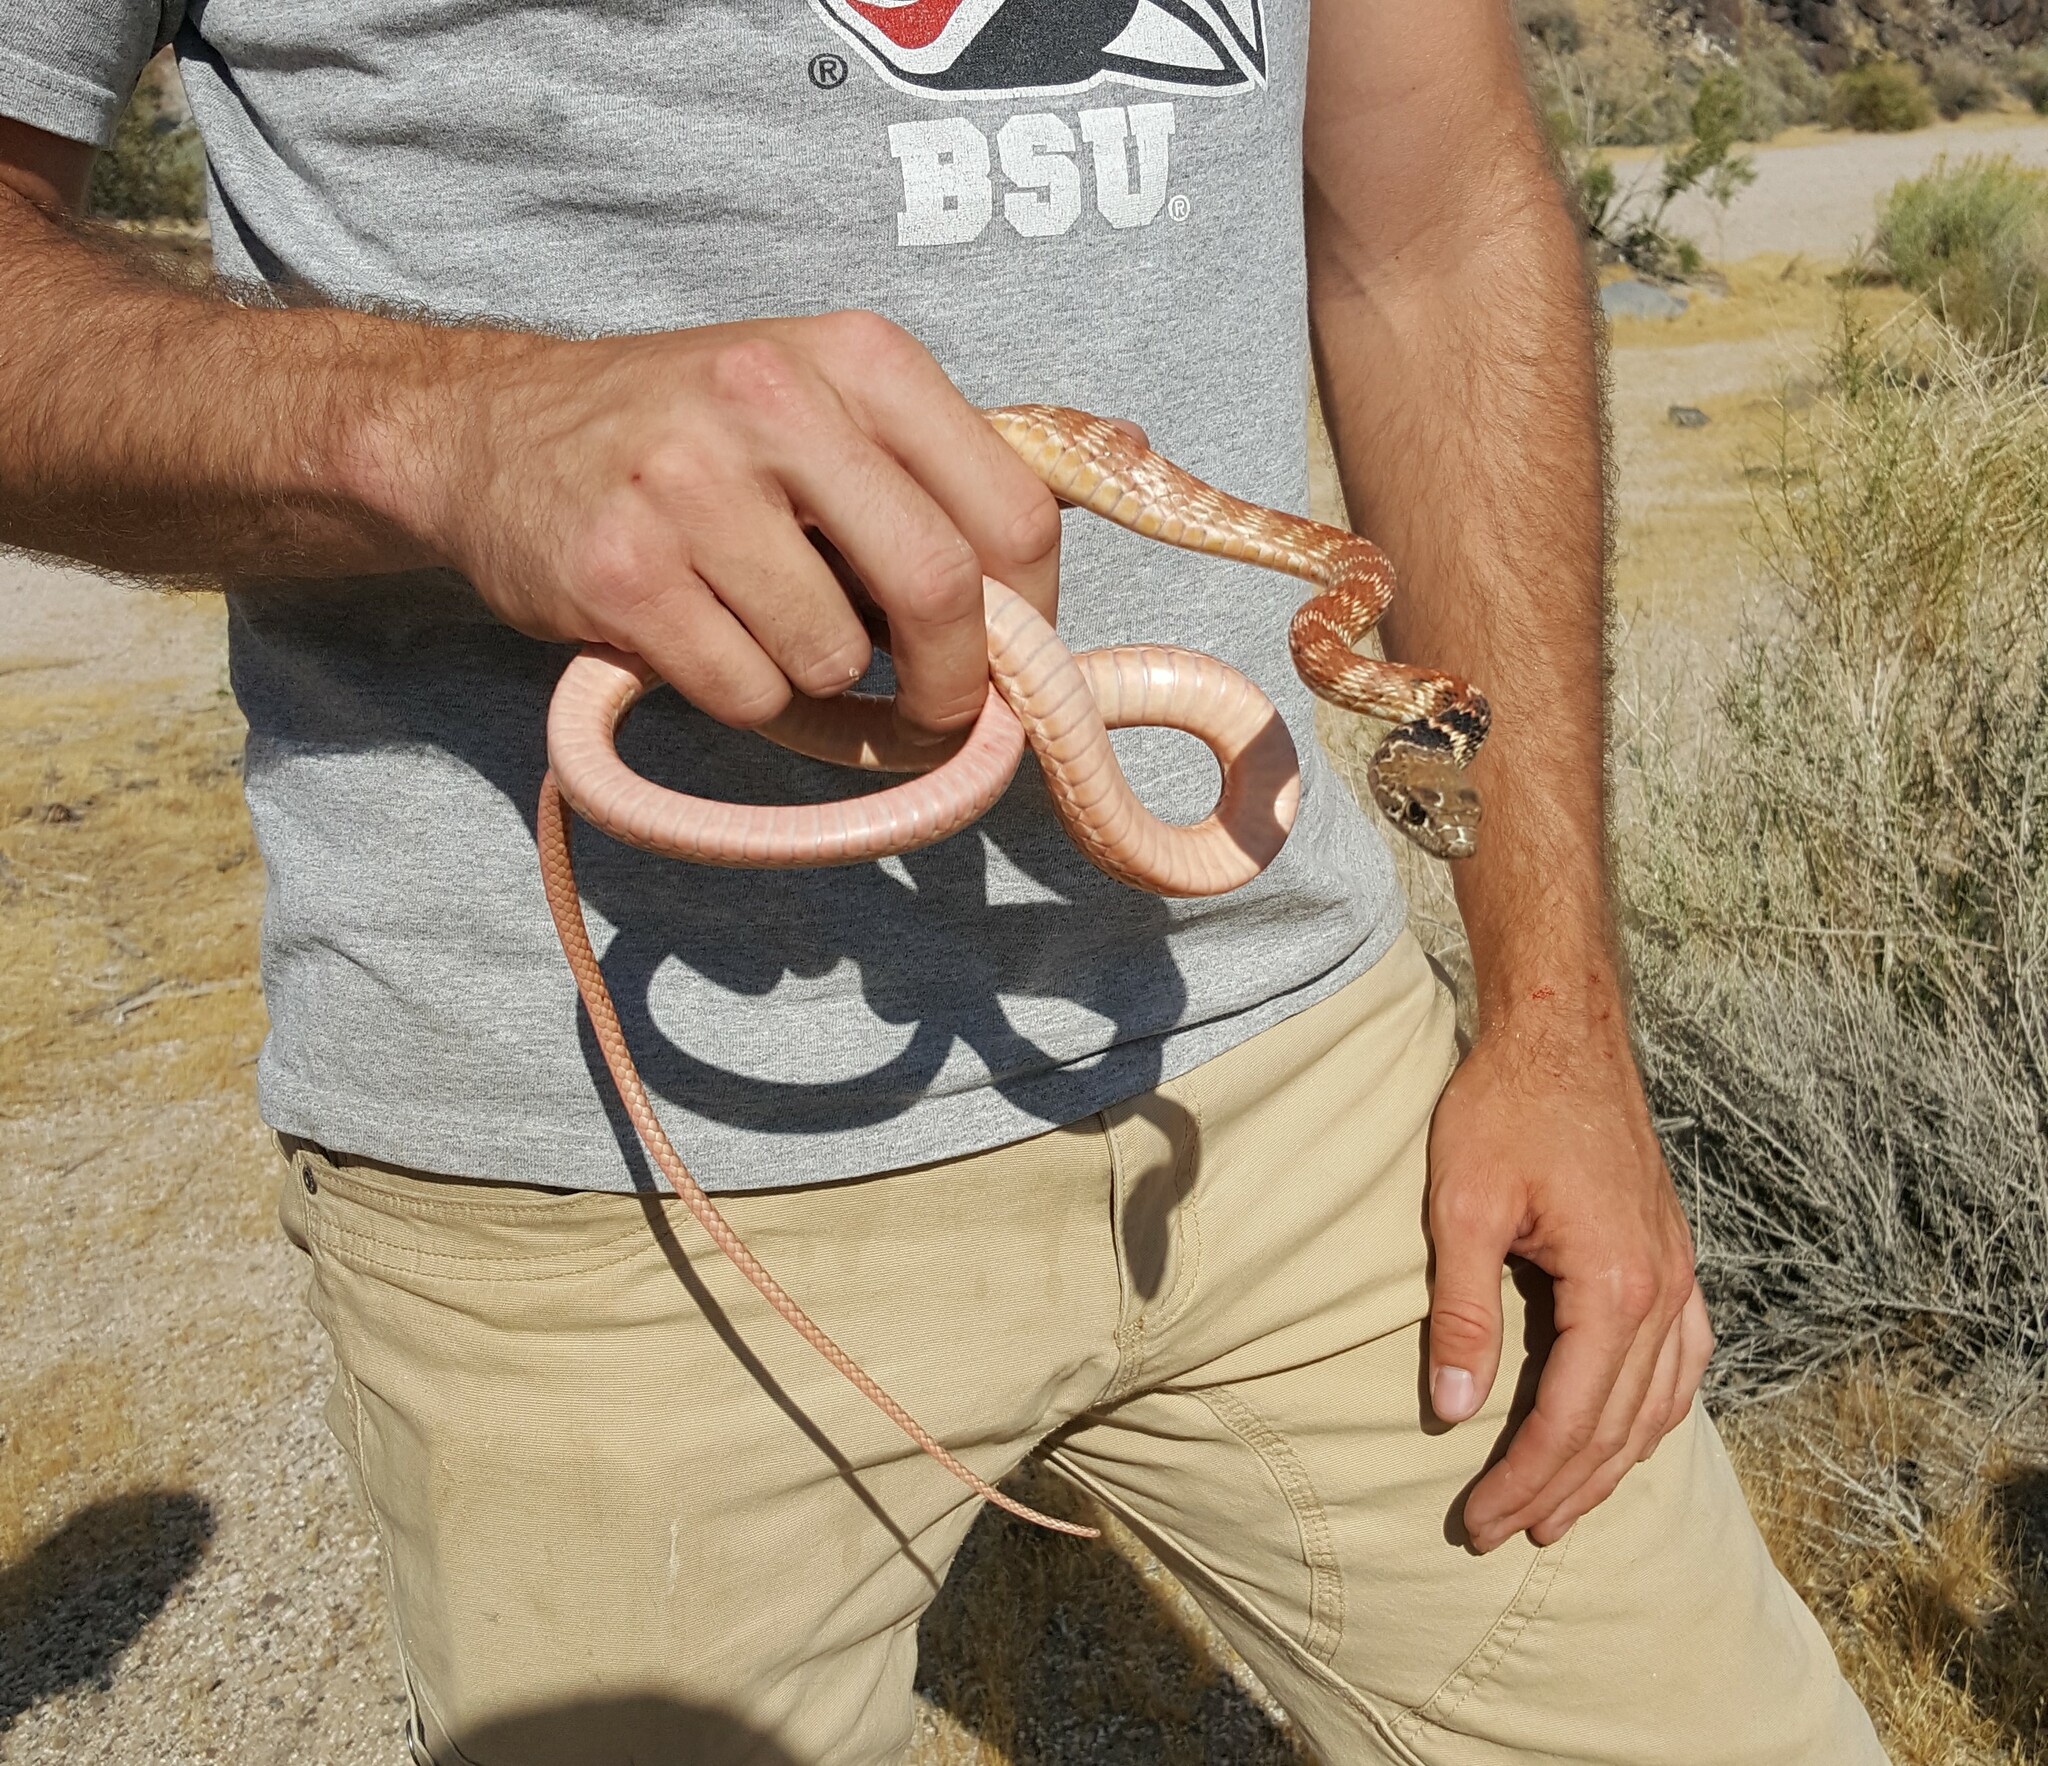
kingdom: Animalia
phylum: Chordata
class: Squamata
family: Colubridae
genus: Masticophis
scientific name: Masticophis flagellum
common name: Coachwhip
